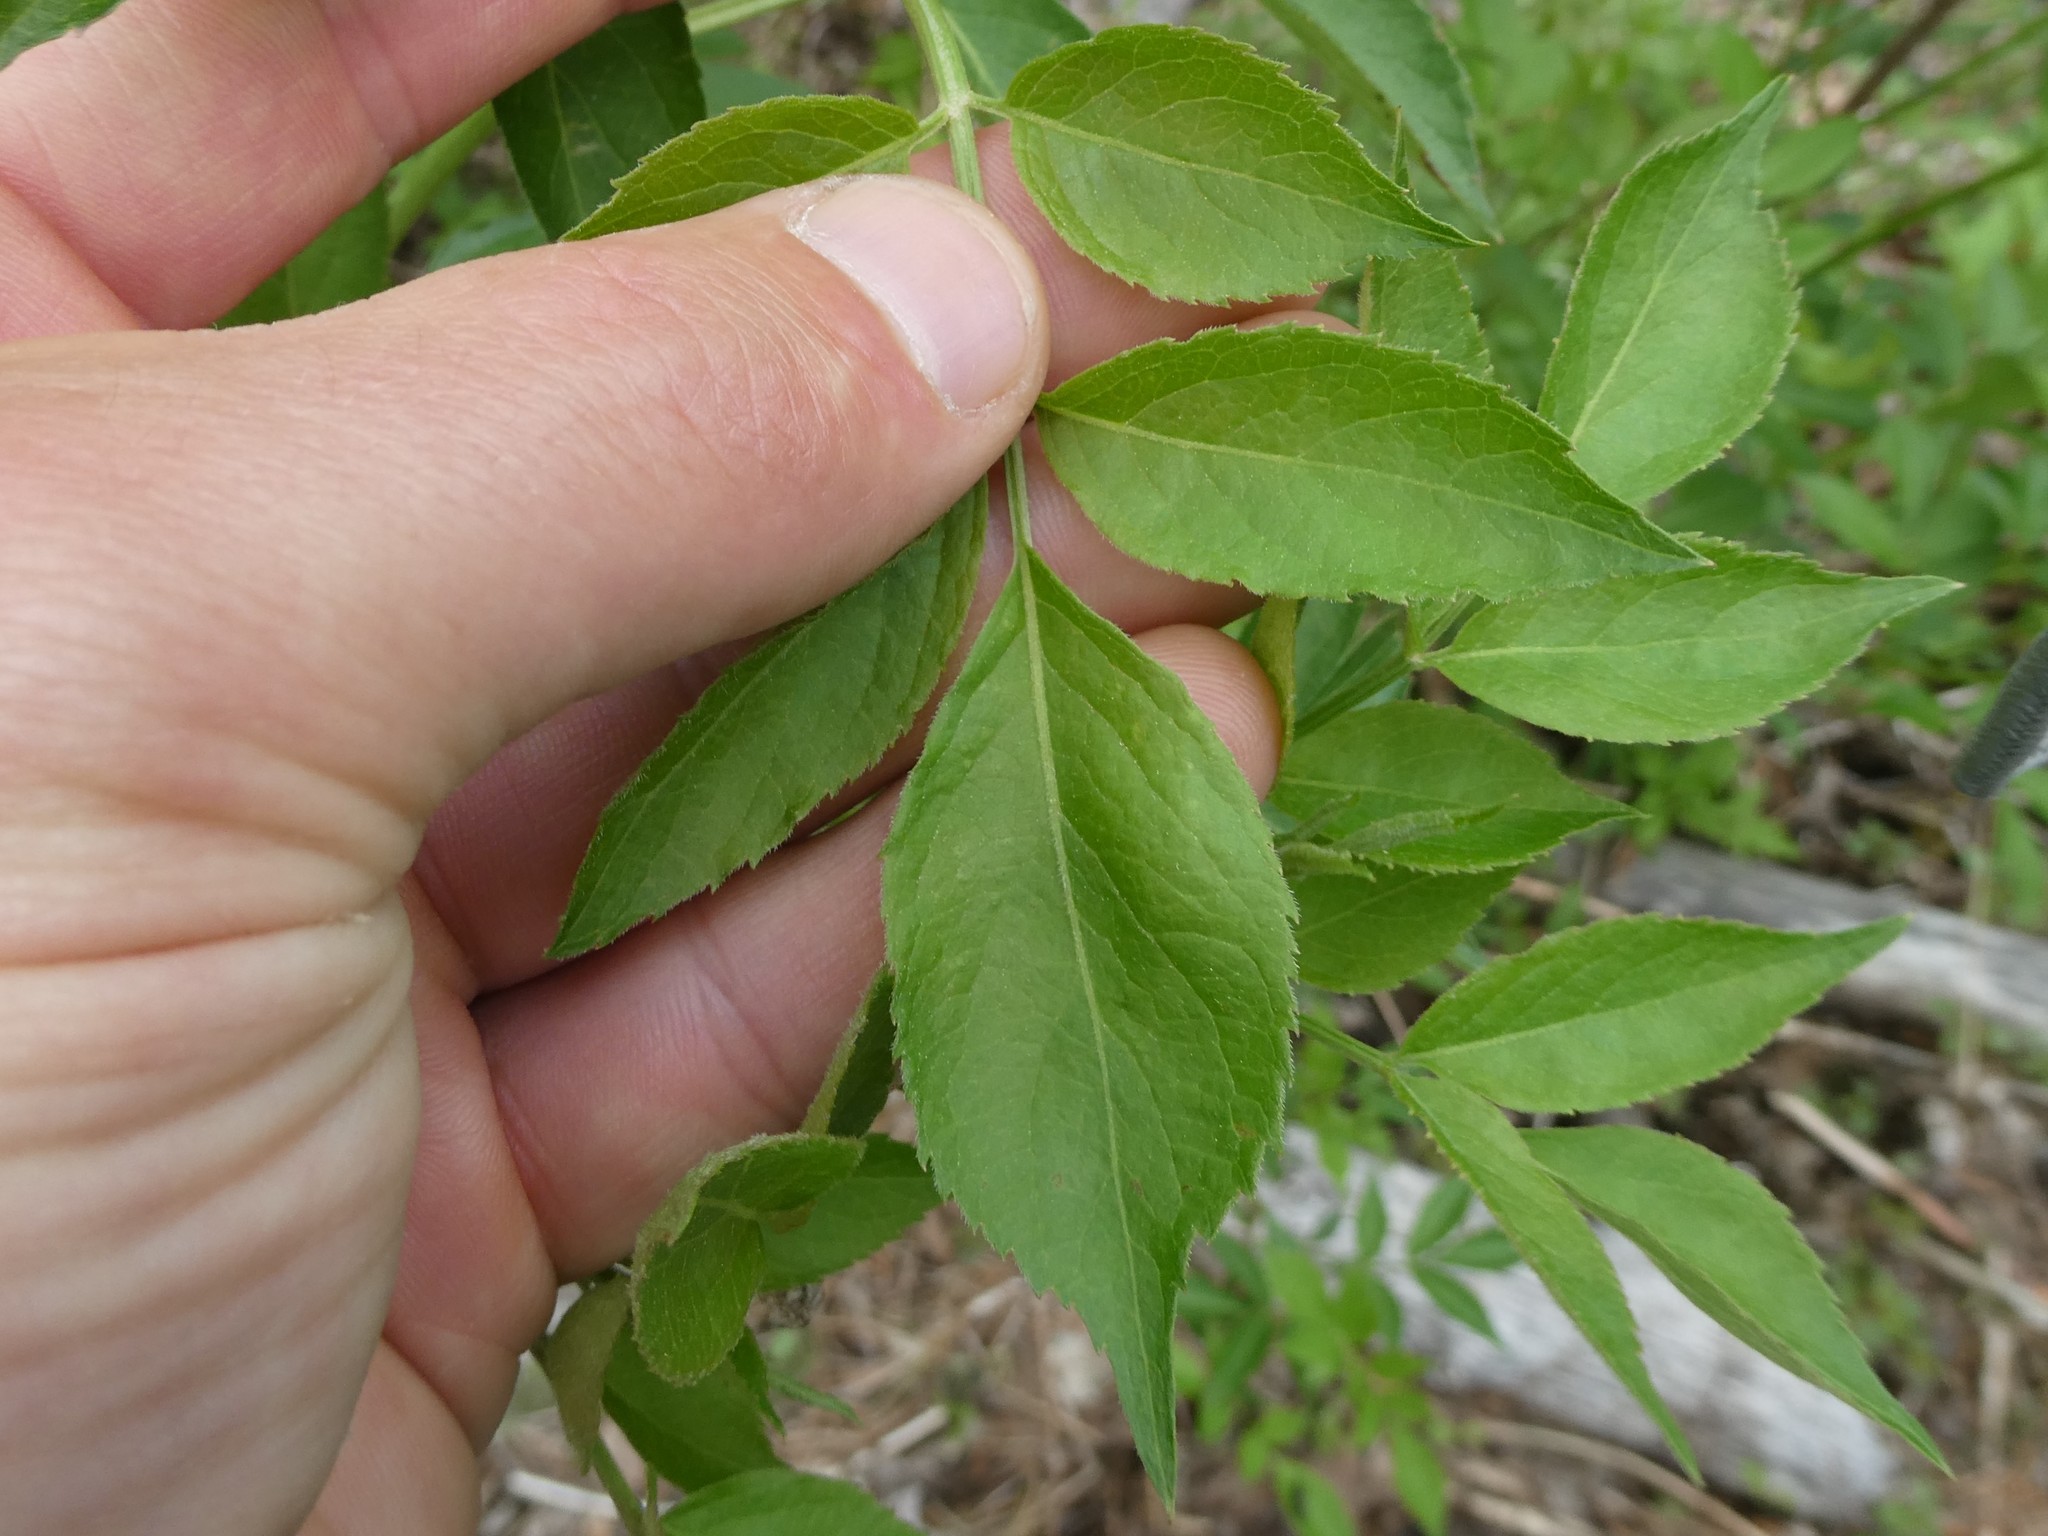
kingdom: Plantae
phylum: Tracheophyta
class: Magnoliopsida
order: Dipsacales
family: Viburnaceae
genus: Sambucus
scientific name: Sambucus canadensis
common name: American elder
